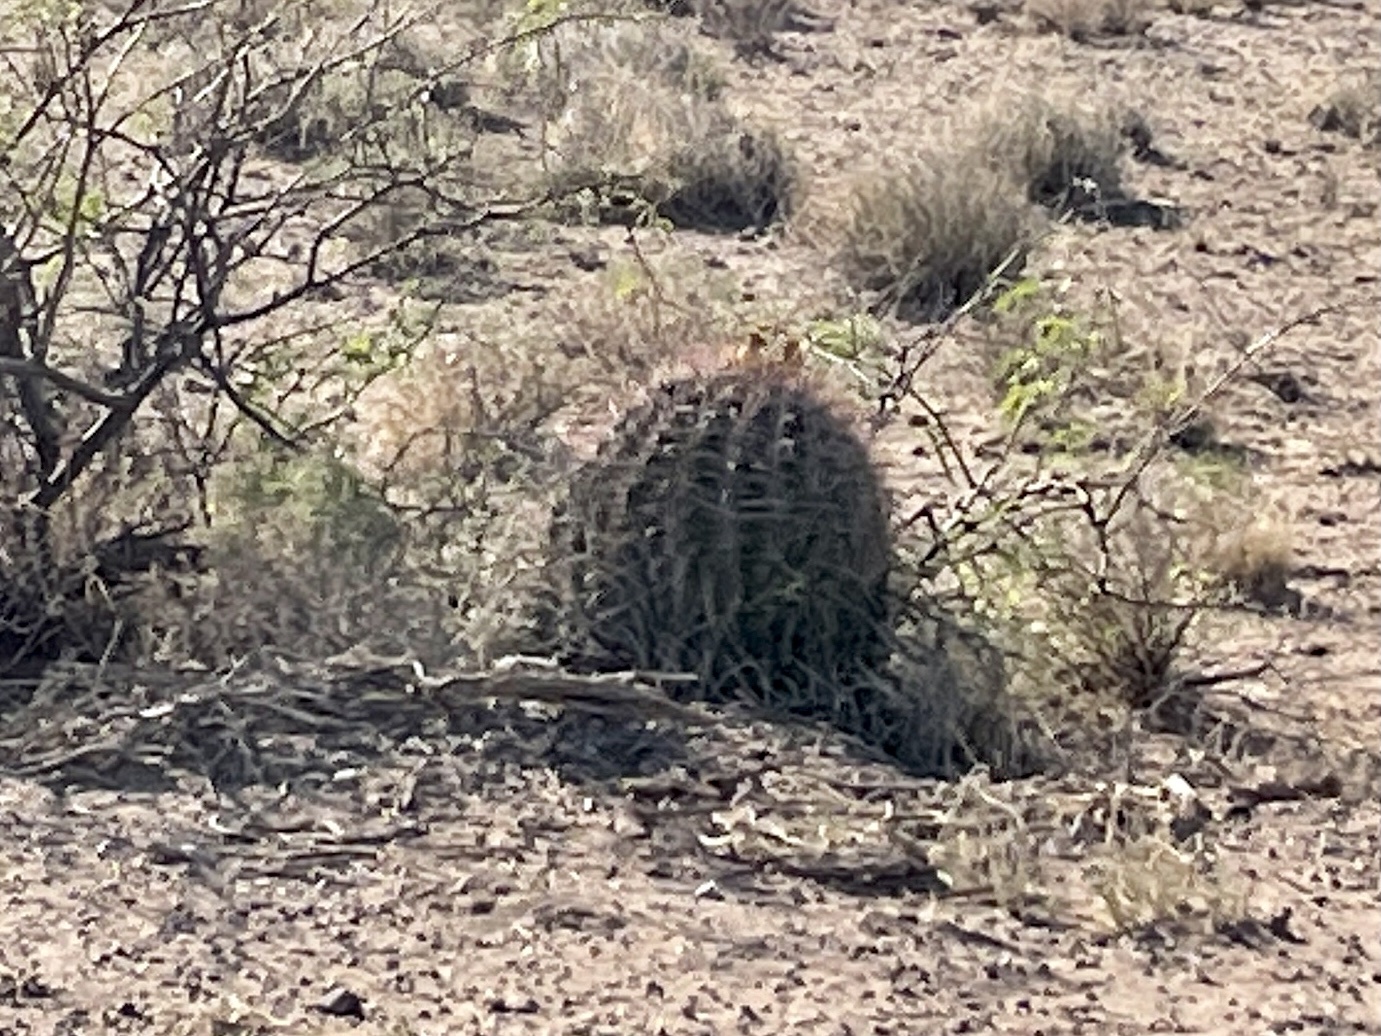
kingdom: Plantae
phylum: Tracheophyta
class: Magnoliopsida
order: Caryophyllales
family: Cactaceae
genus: Ferocactus
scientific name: Ferocactus wislizeni
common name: Candy barrel cactus
